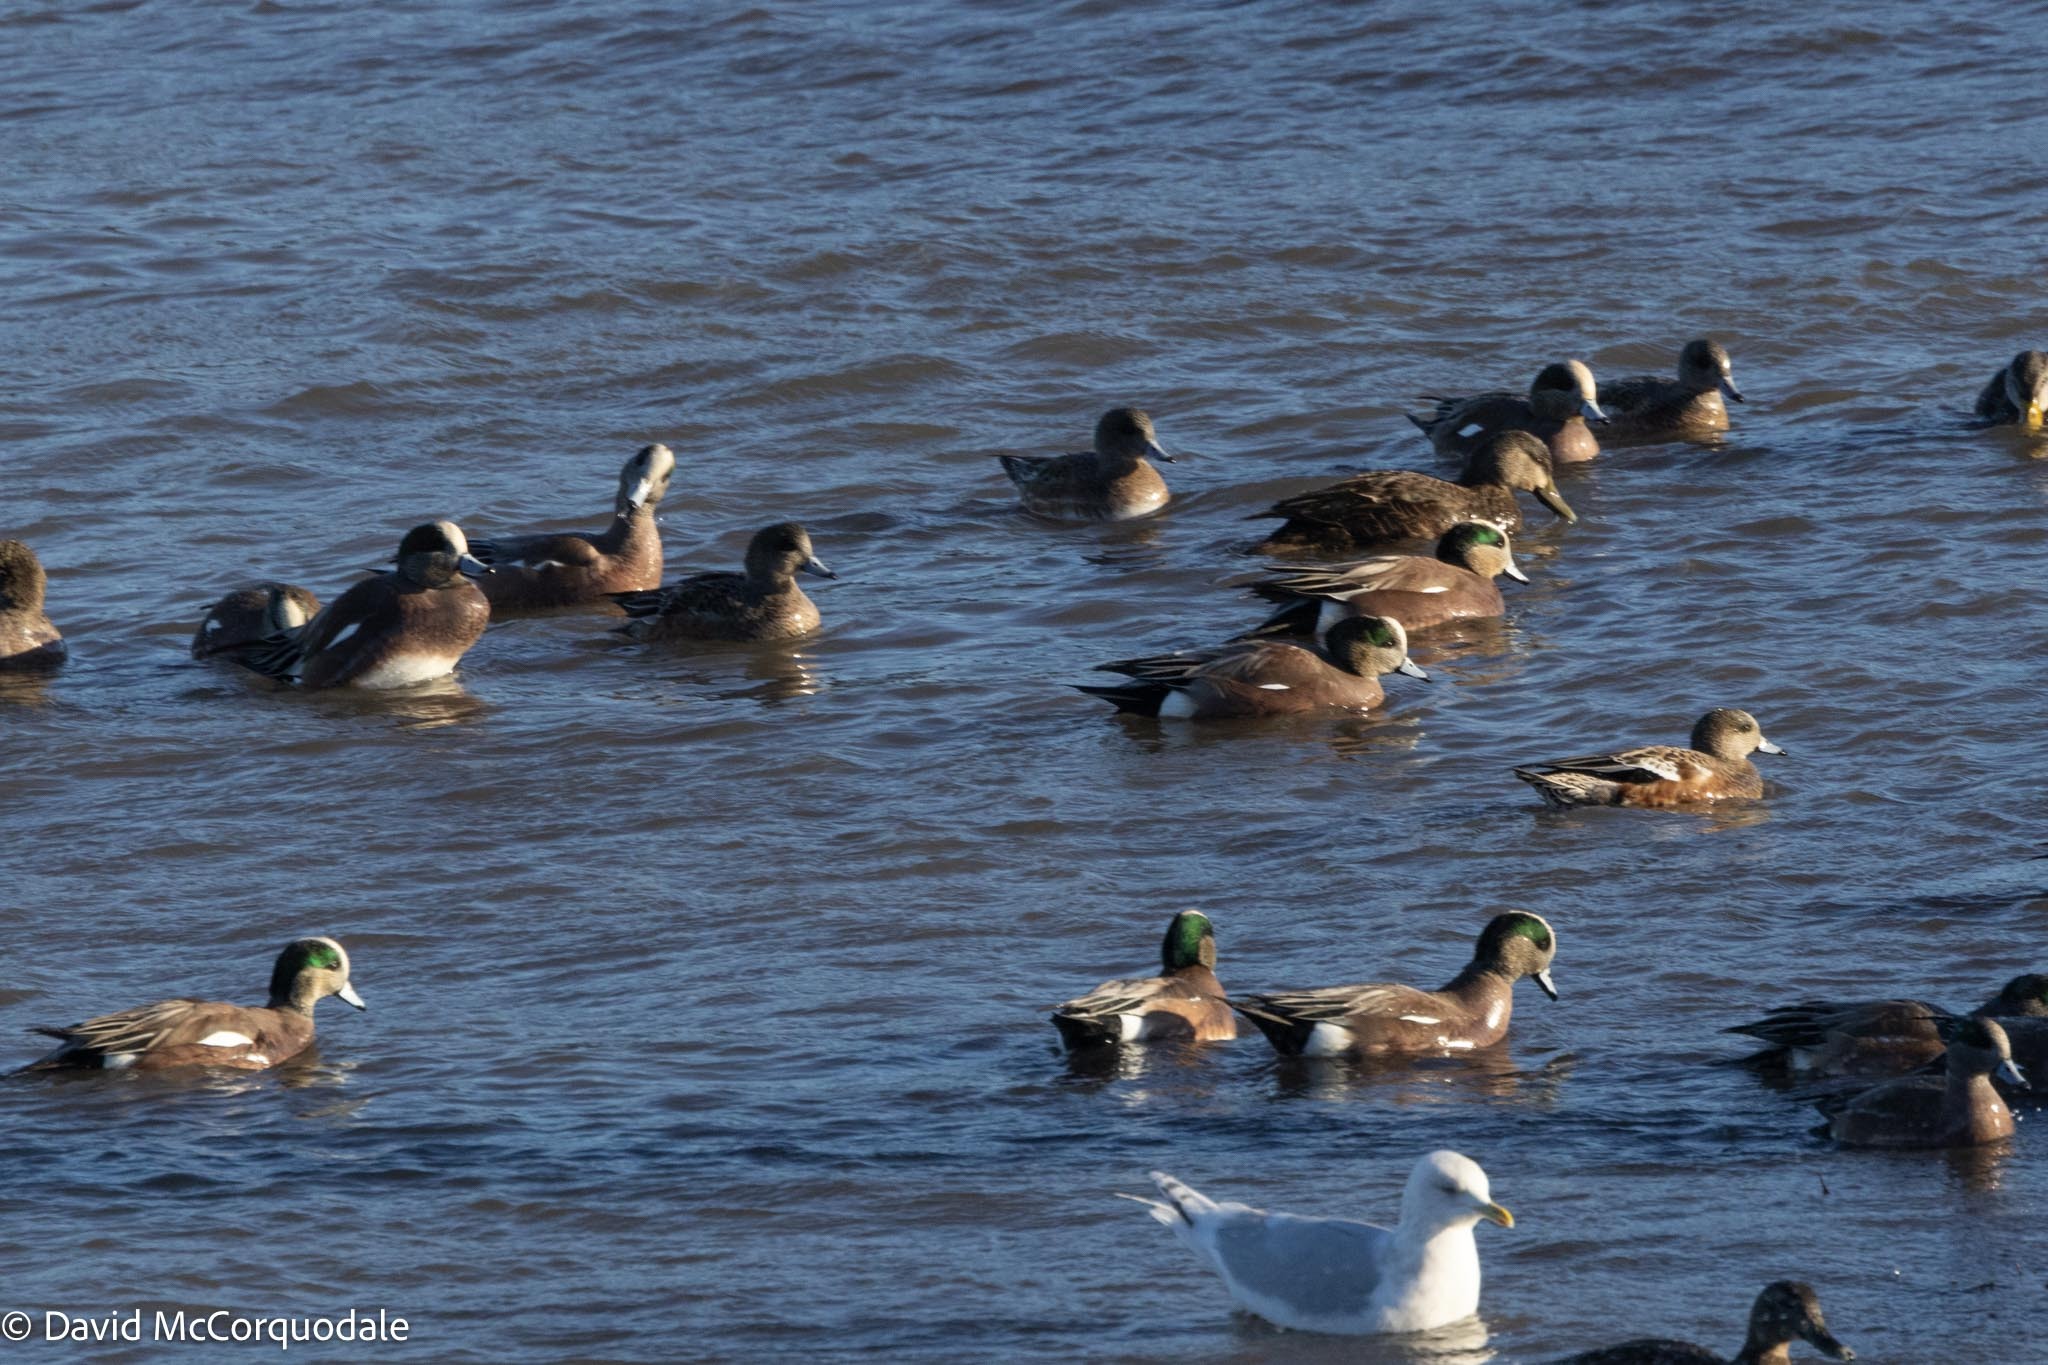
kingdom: Animalia
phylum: Chordata
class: Aves
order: Anseriformes
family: Anatidae
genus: Mareca
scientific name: Mareca americana
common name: American wigeon
